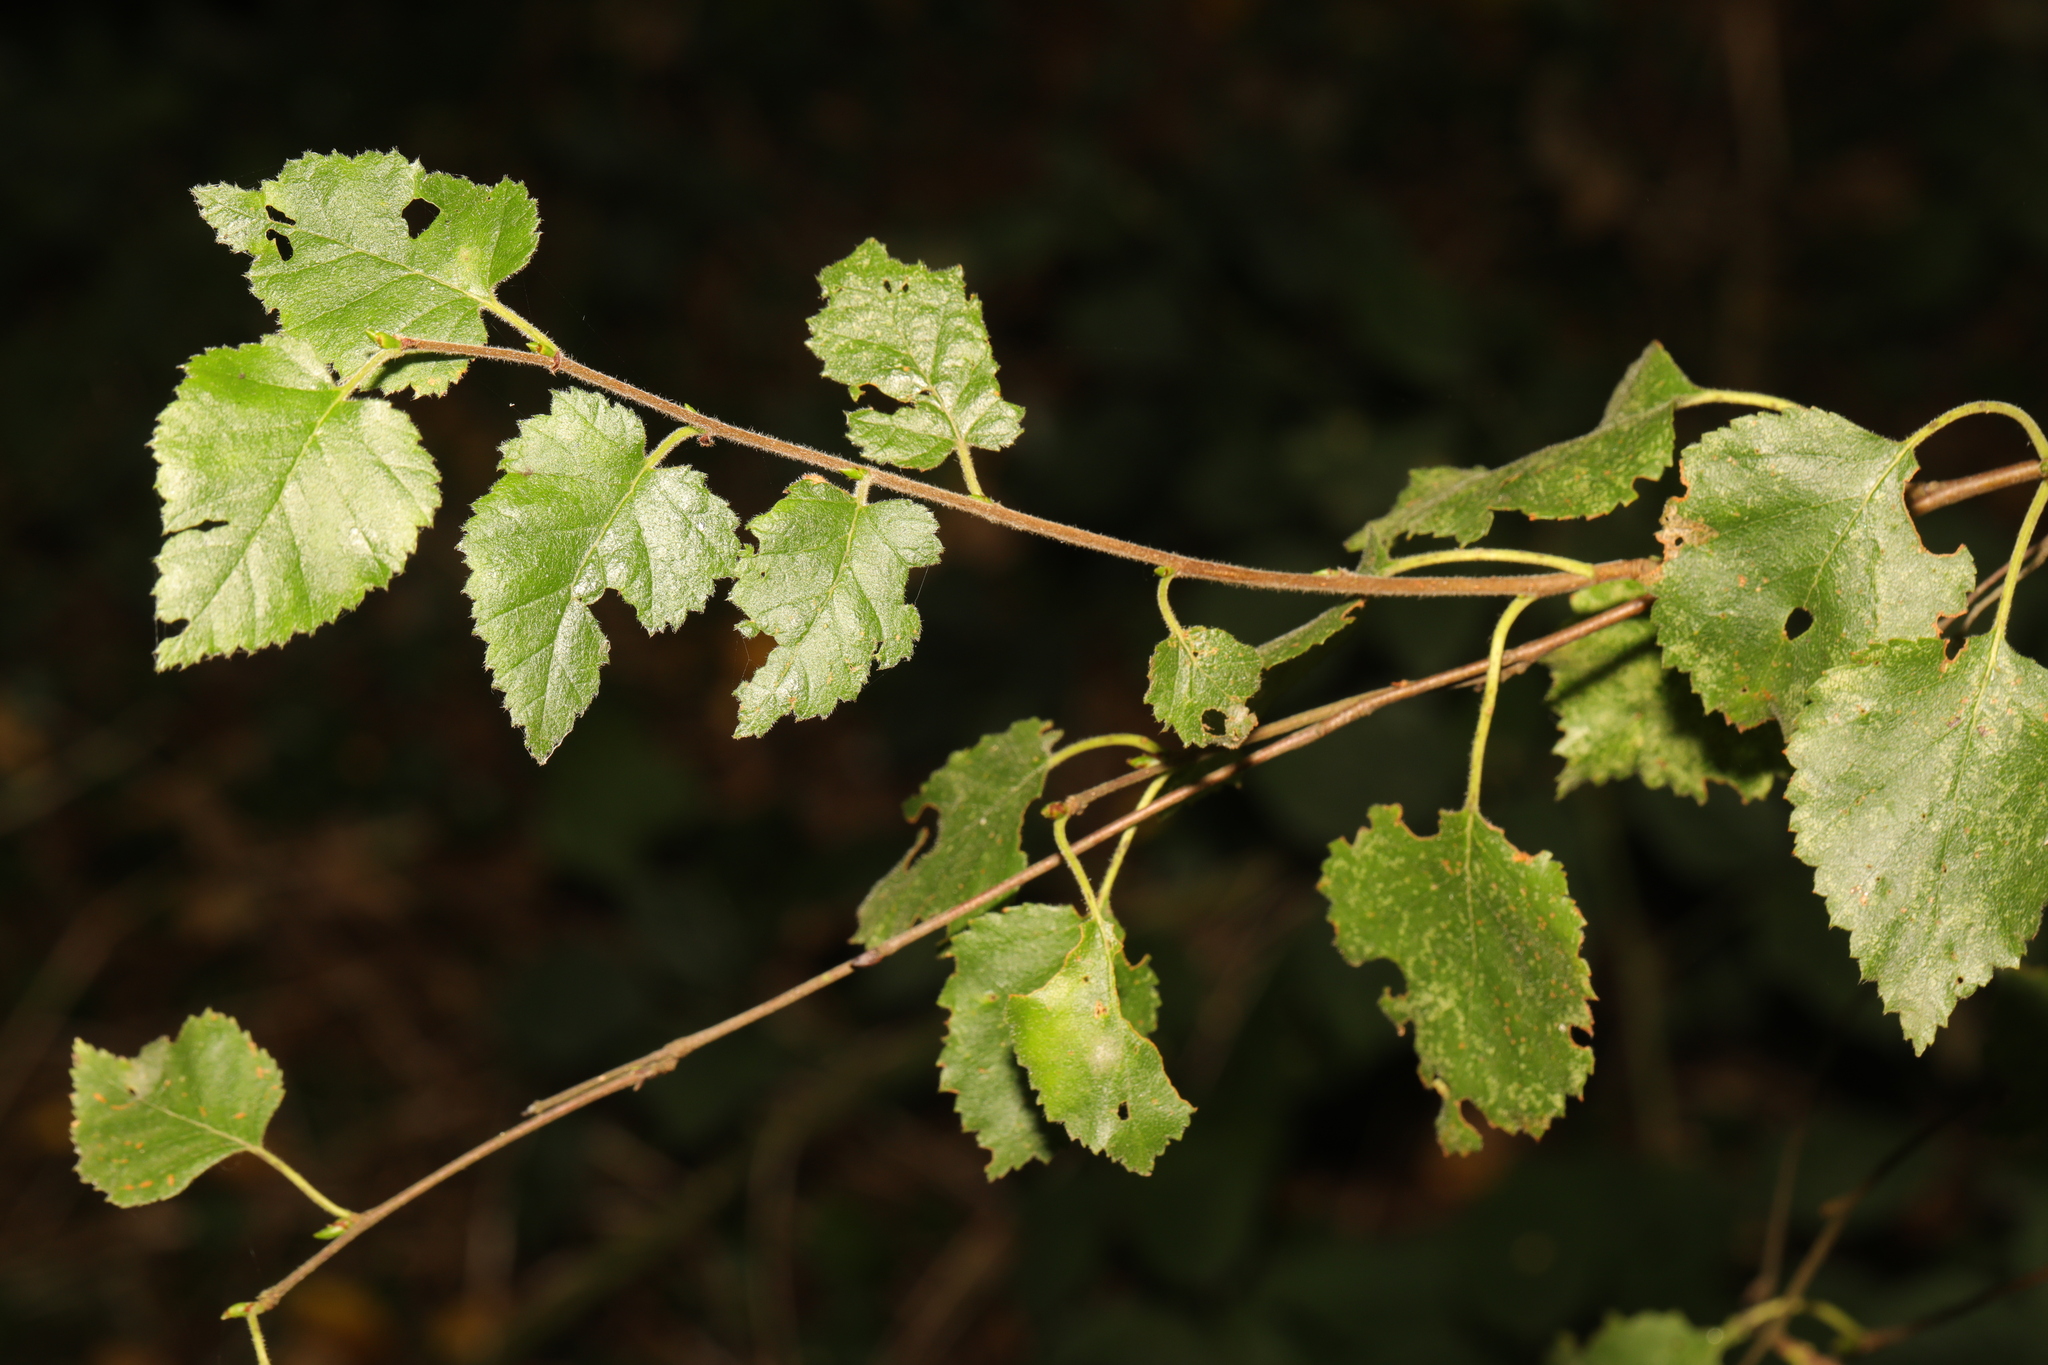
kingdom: Plantae
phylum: Tracheophyta
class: Magnoliopsida
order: Fagales
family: Betulaceae
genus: Betula
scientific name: Betula pendula
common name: Silver birch
